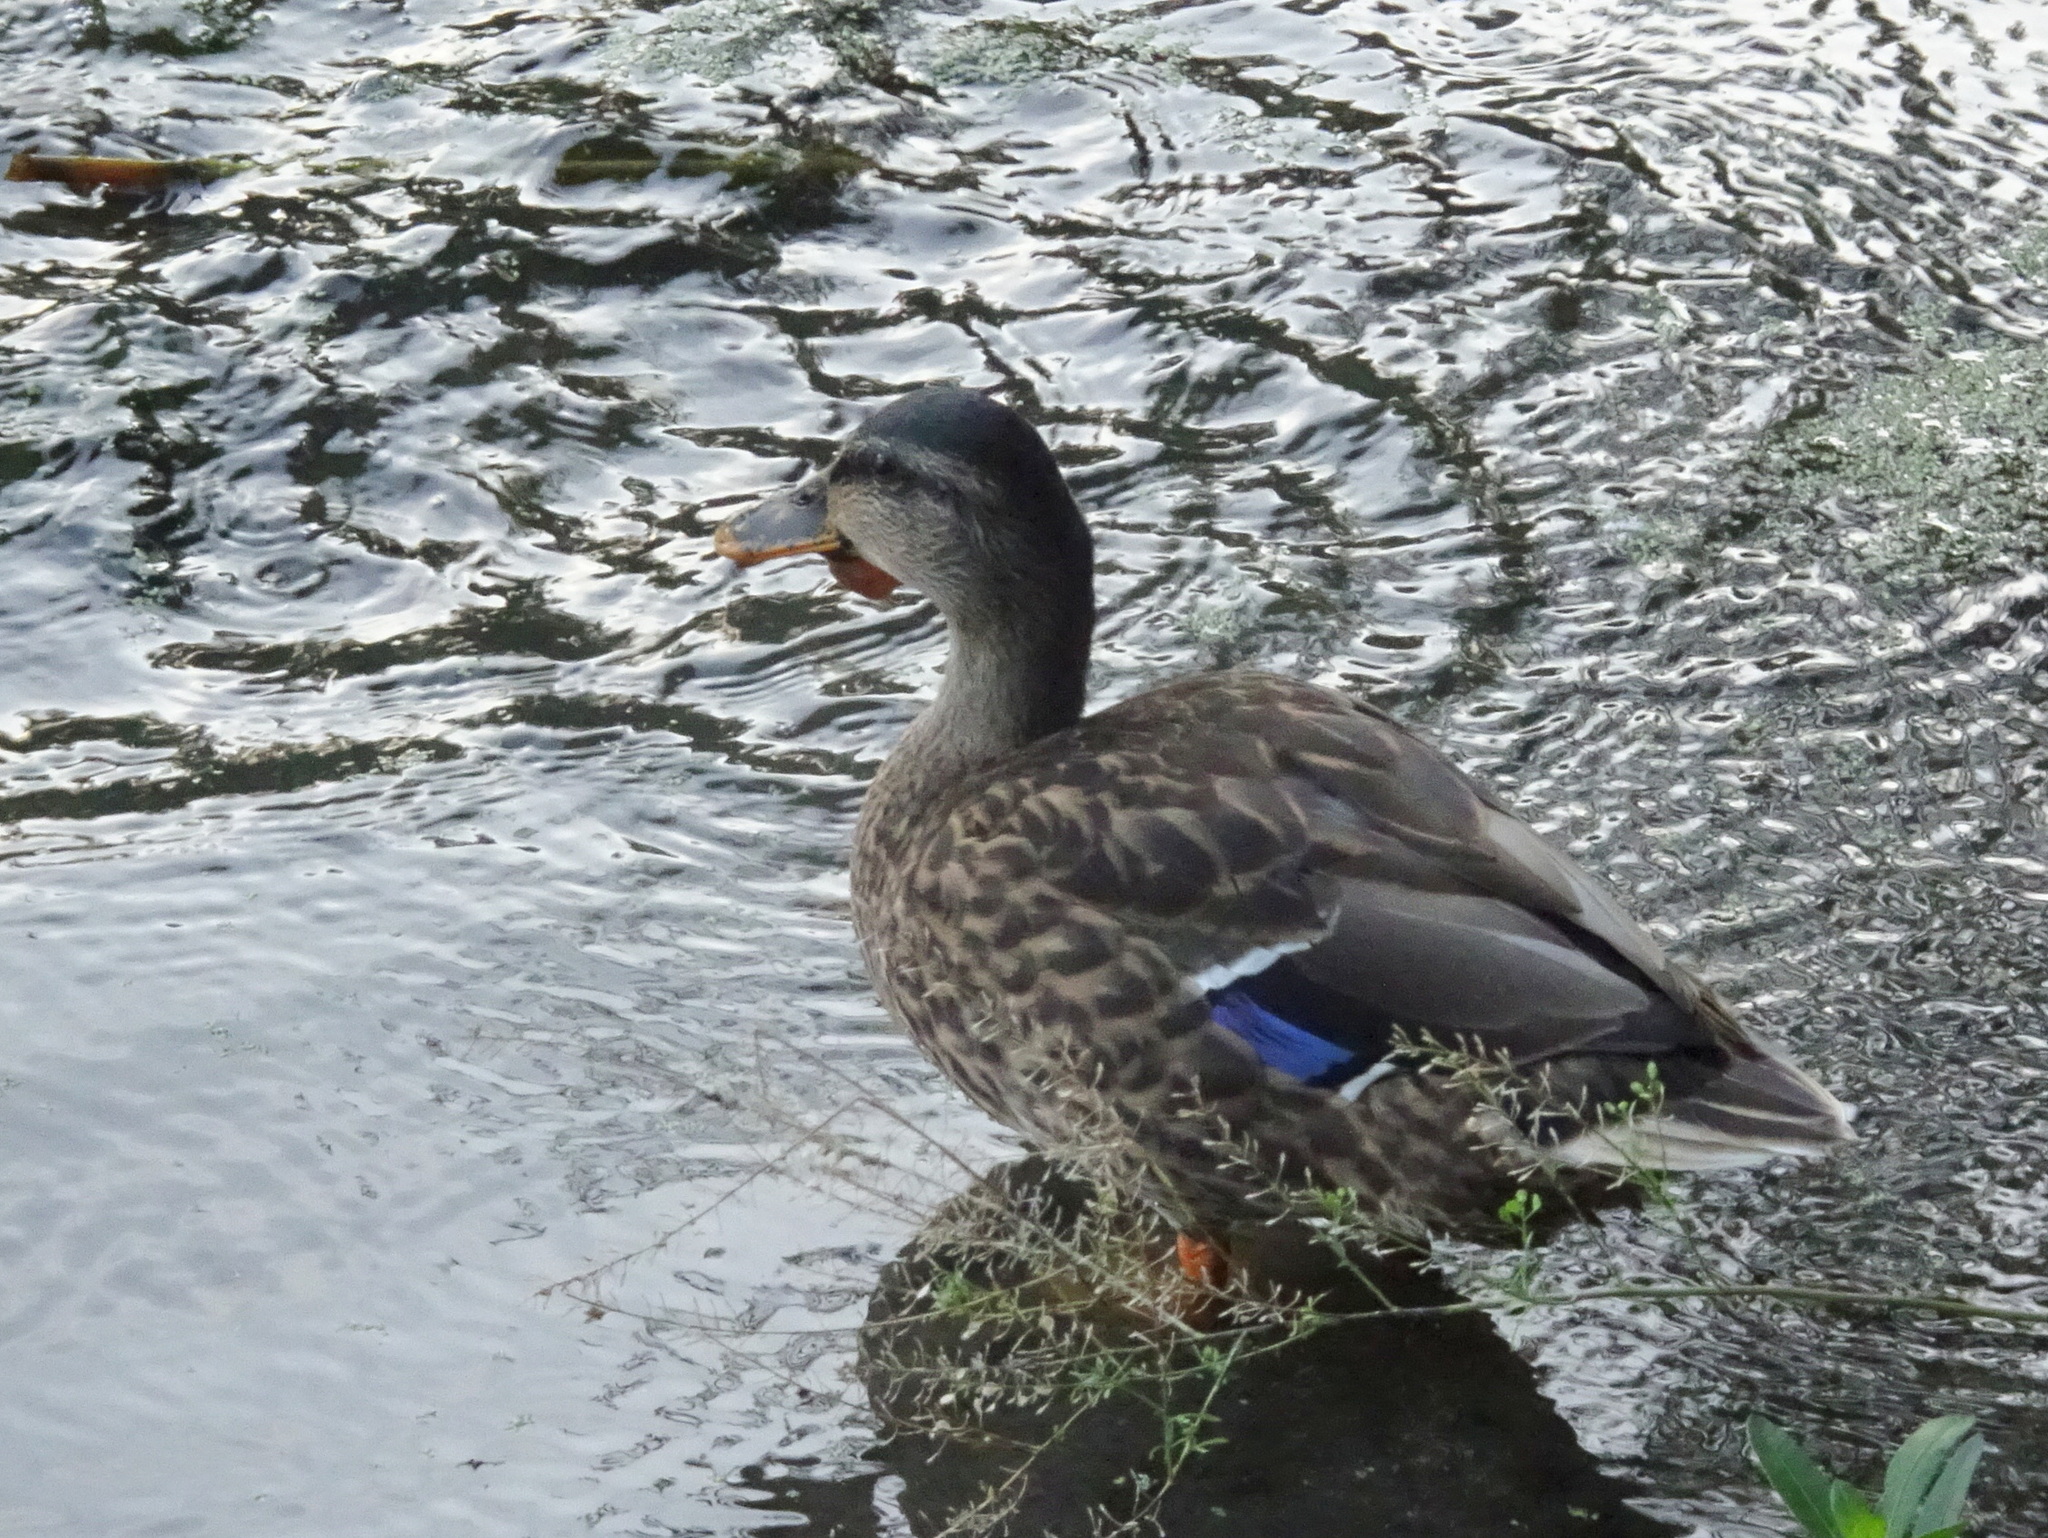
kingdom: Animalia
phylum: Chordata
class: Aves
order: Anseriformes
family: Anatidae
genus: Anas
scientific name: Anas platyrhynchos
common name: Mallard
